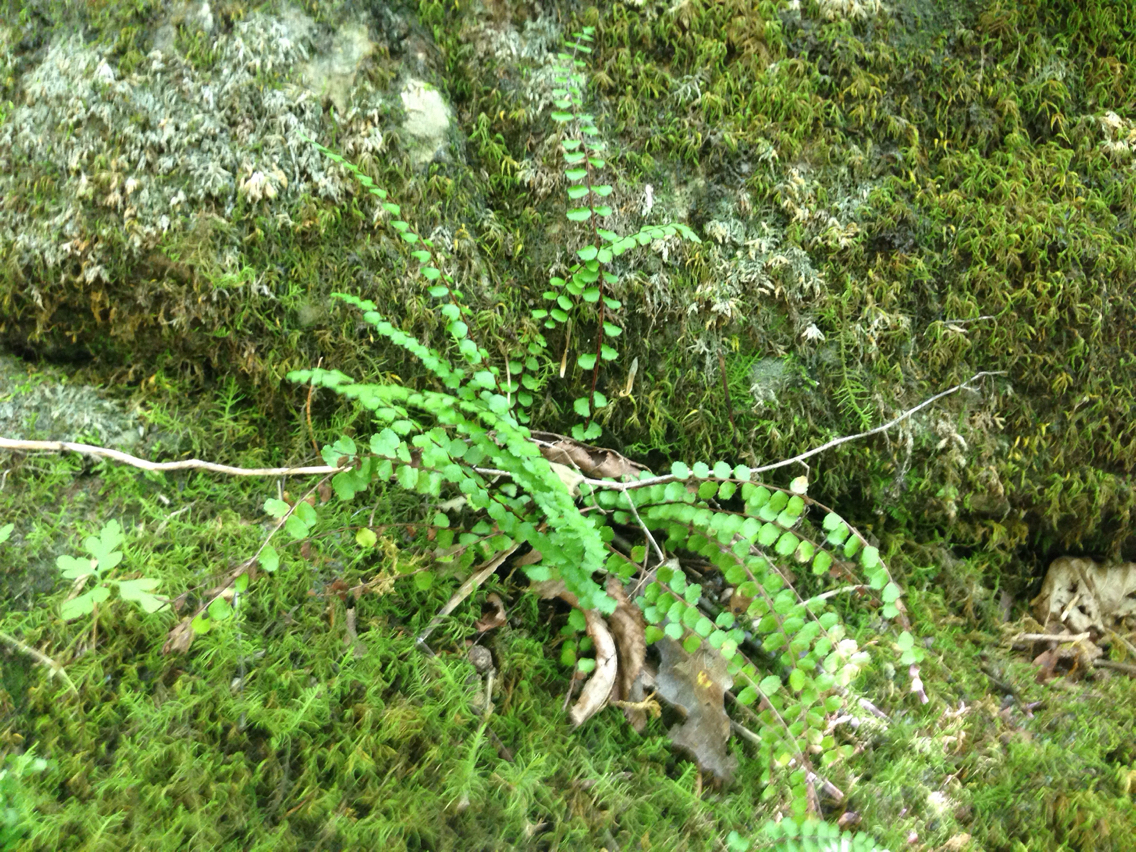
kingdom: Plantae
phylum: Tracheophyta
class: Polypodiopsida
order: Polypodiales
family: Aspleniaceae
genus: Asplenium
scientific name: Asplenium trichomanes
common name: Maidenhair spleenwort
